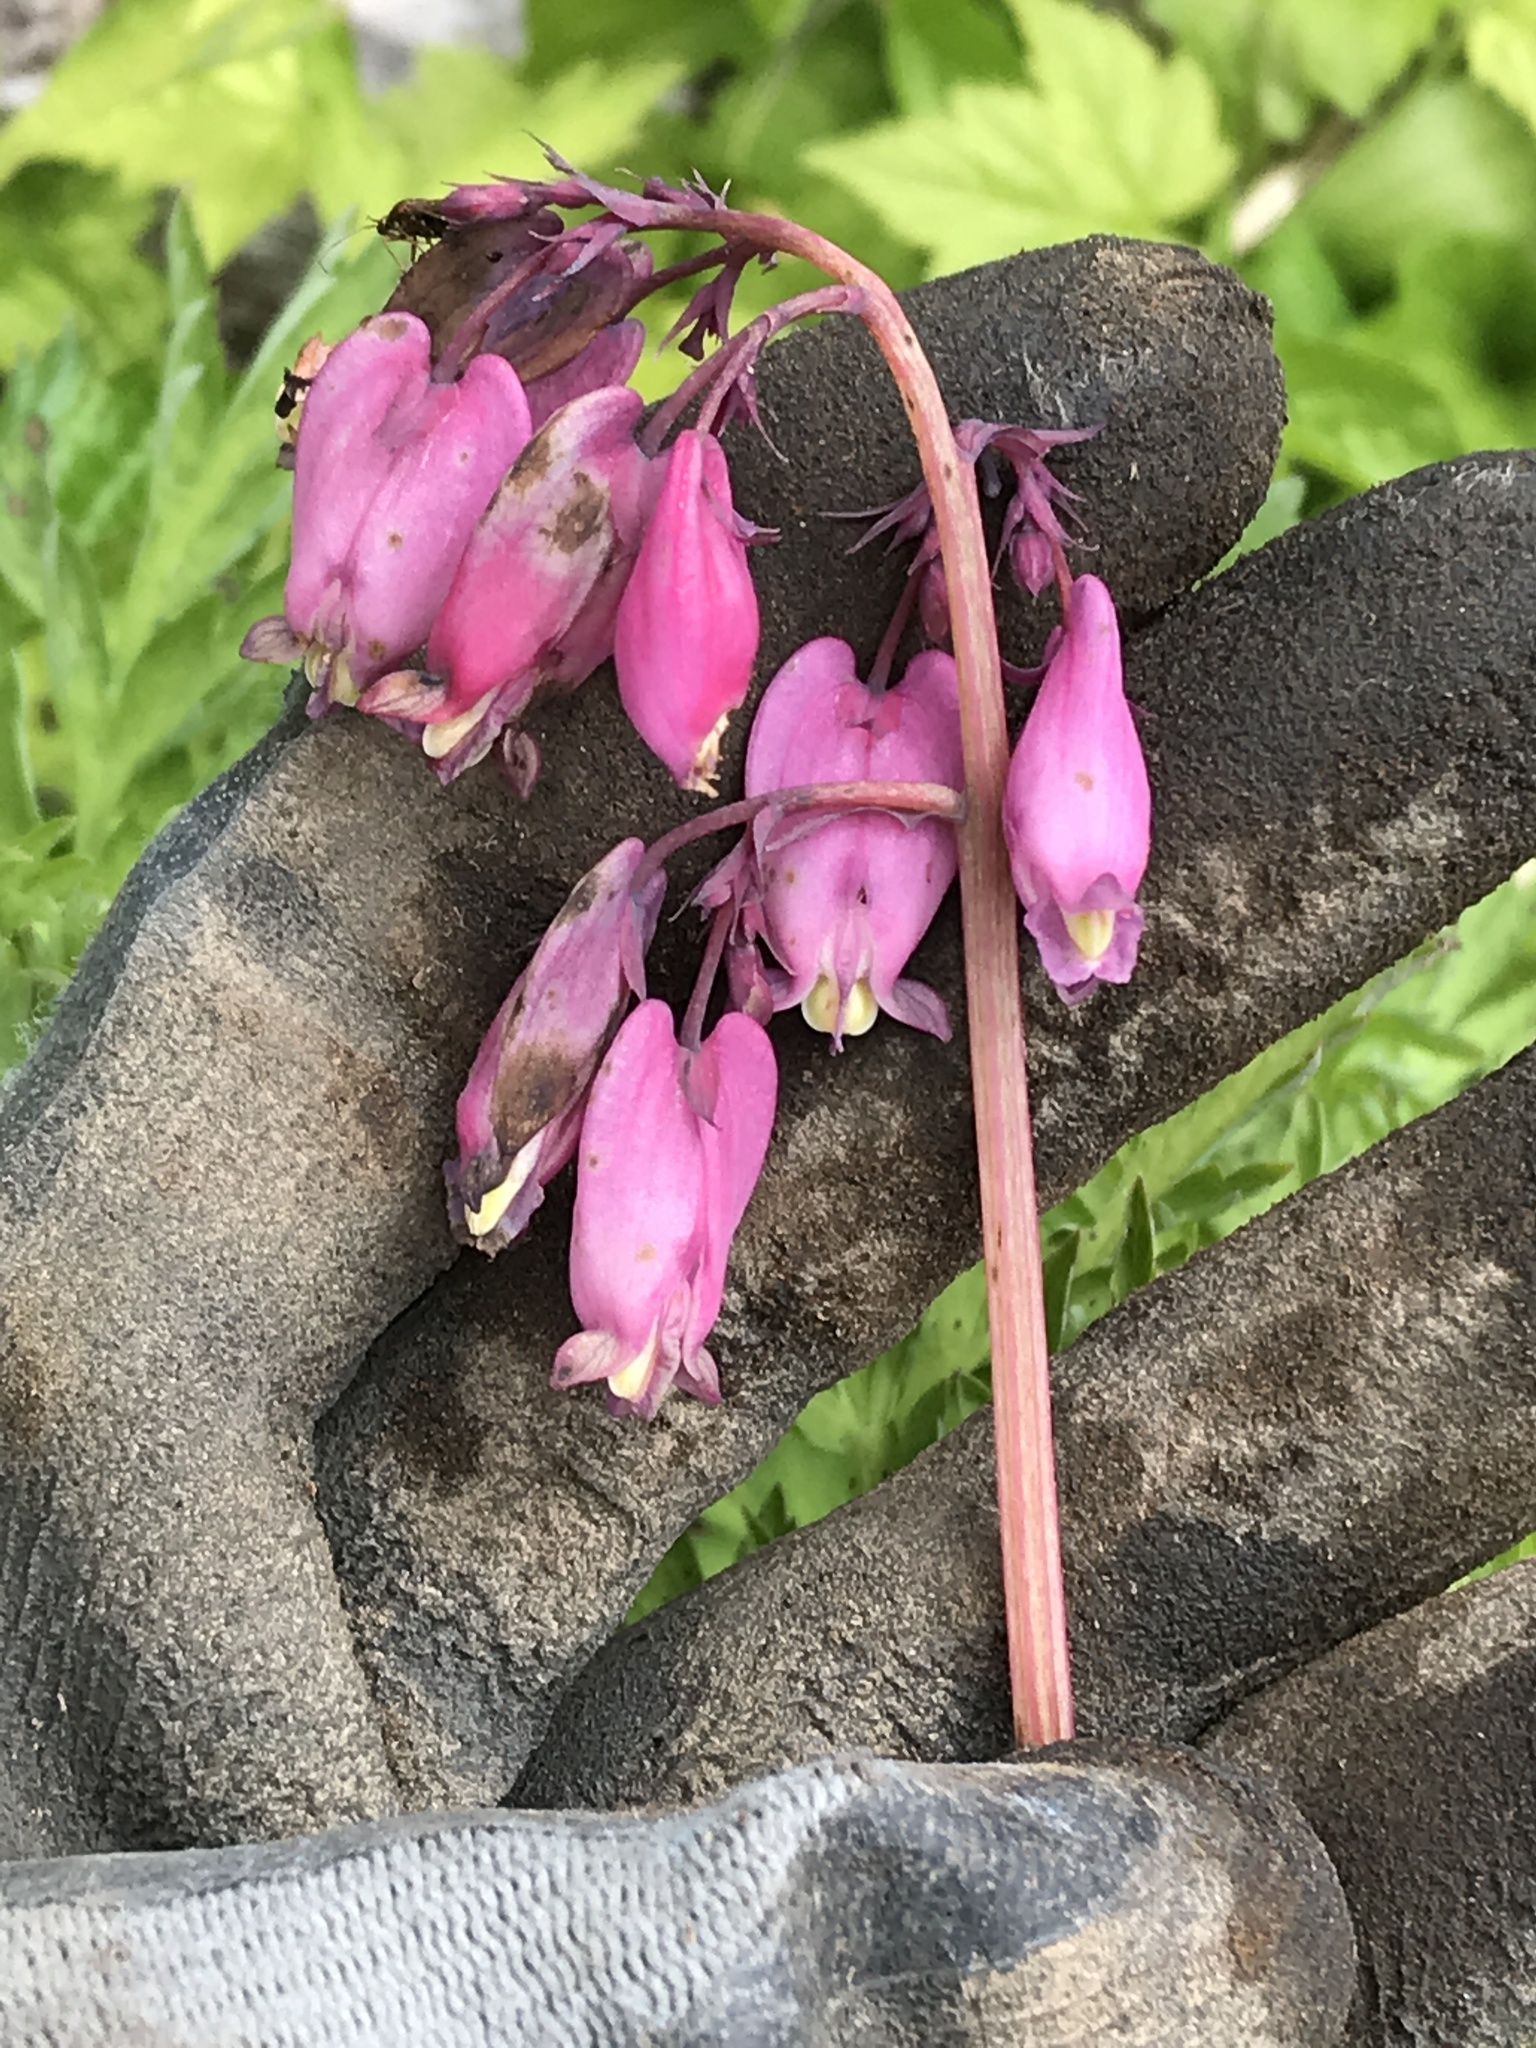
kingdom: Plantae
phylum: Tracheophyta
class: Magnoliopsida
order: Ranunculales
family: Papaveraceae
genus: Dicentra
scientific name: Dicentra formosa
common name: Bleeding-heart
